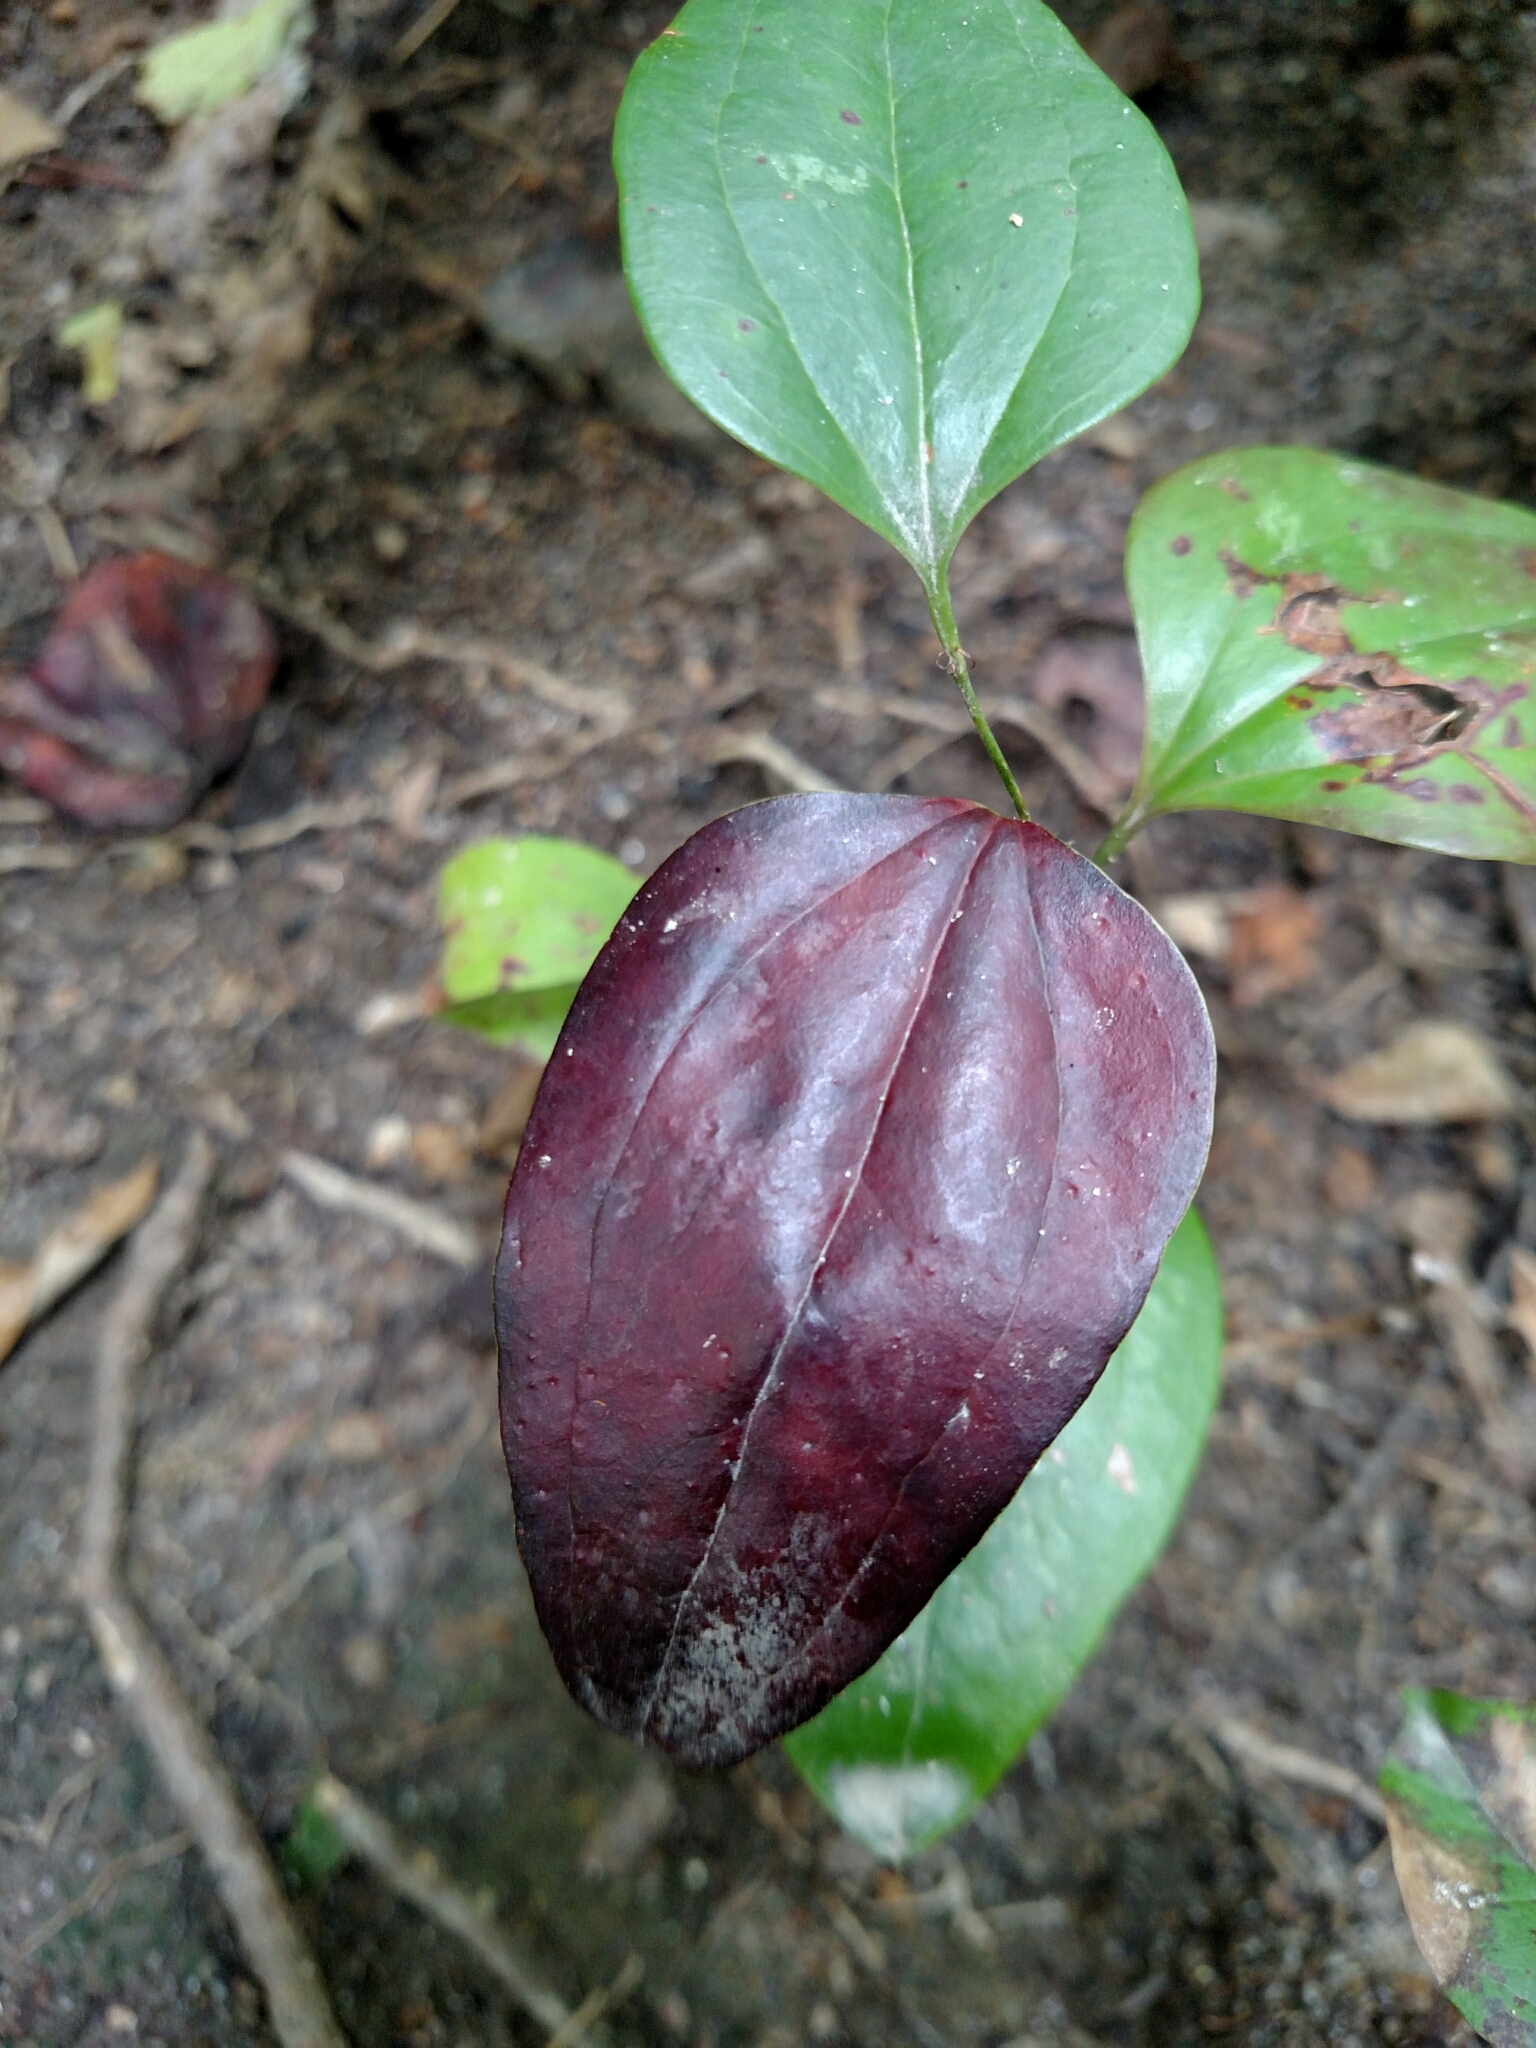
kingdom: Plantae
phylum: Tracheophyta
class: Liliopsida
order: Liliales
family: Smilacaceae
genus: Smilax
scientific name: Smilax glauca
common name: Cat greenbrier
